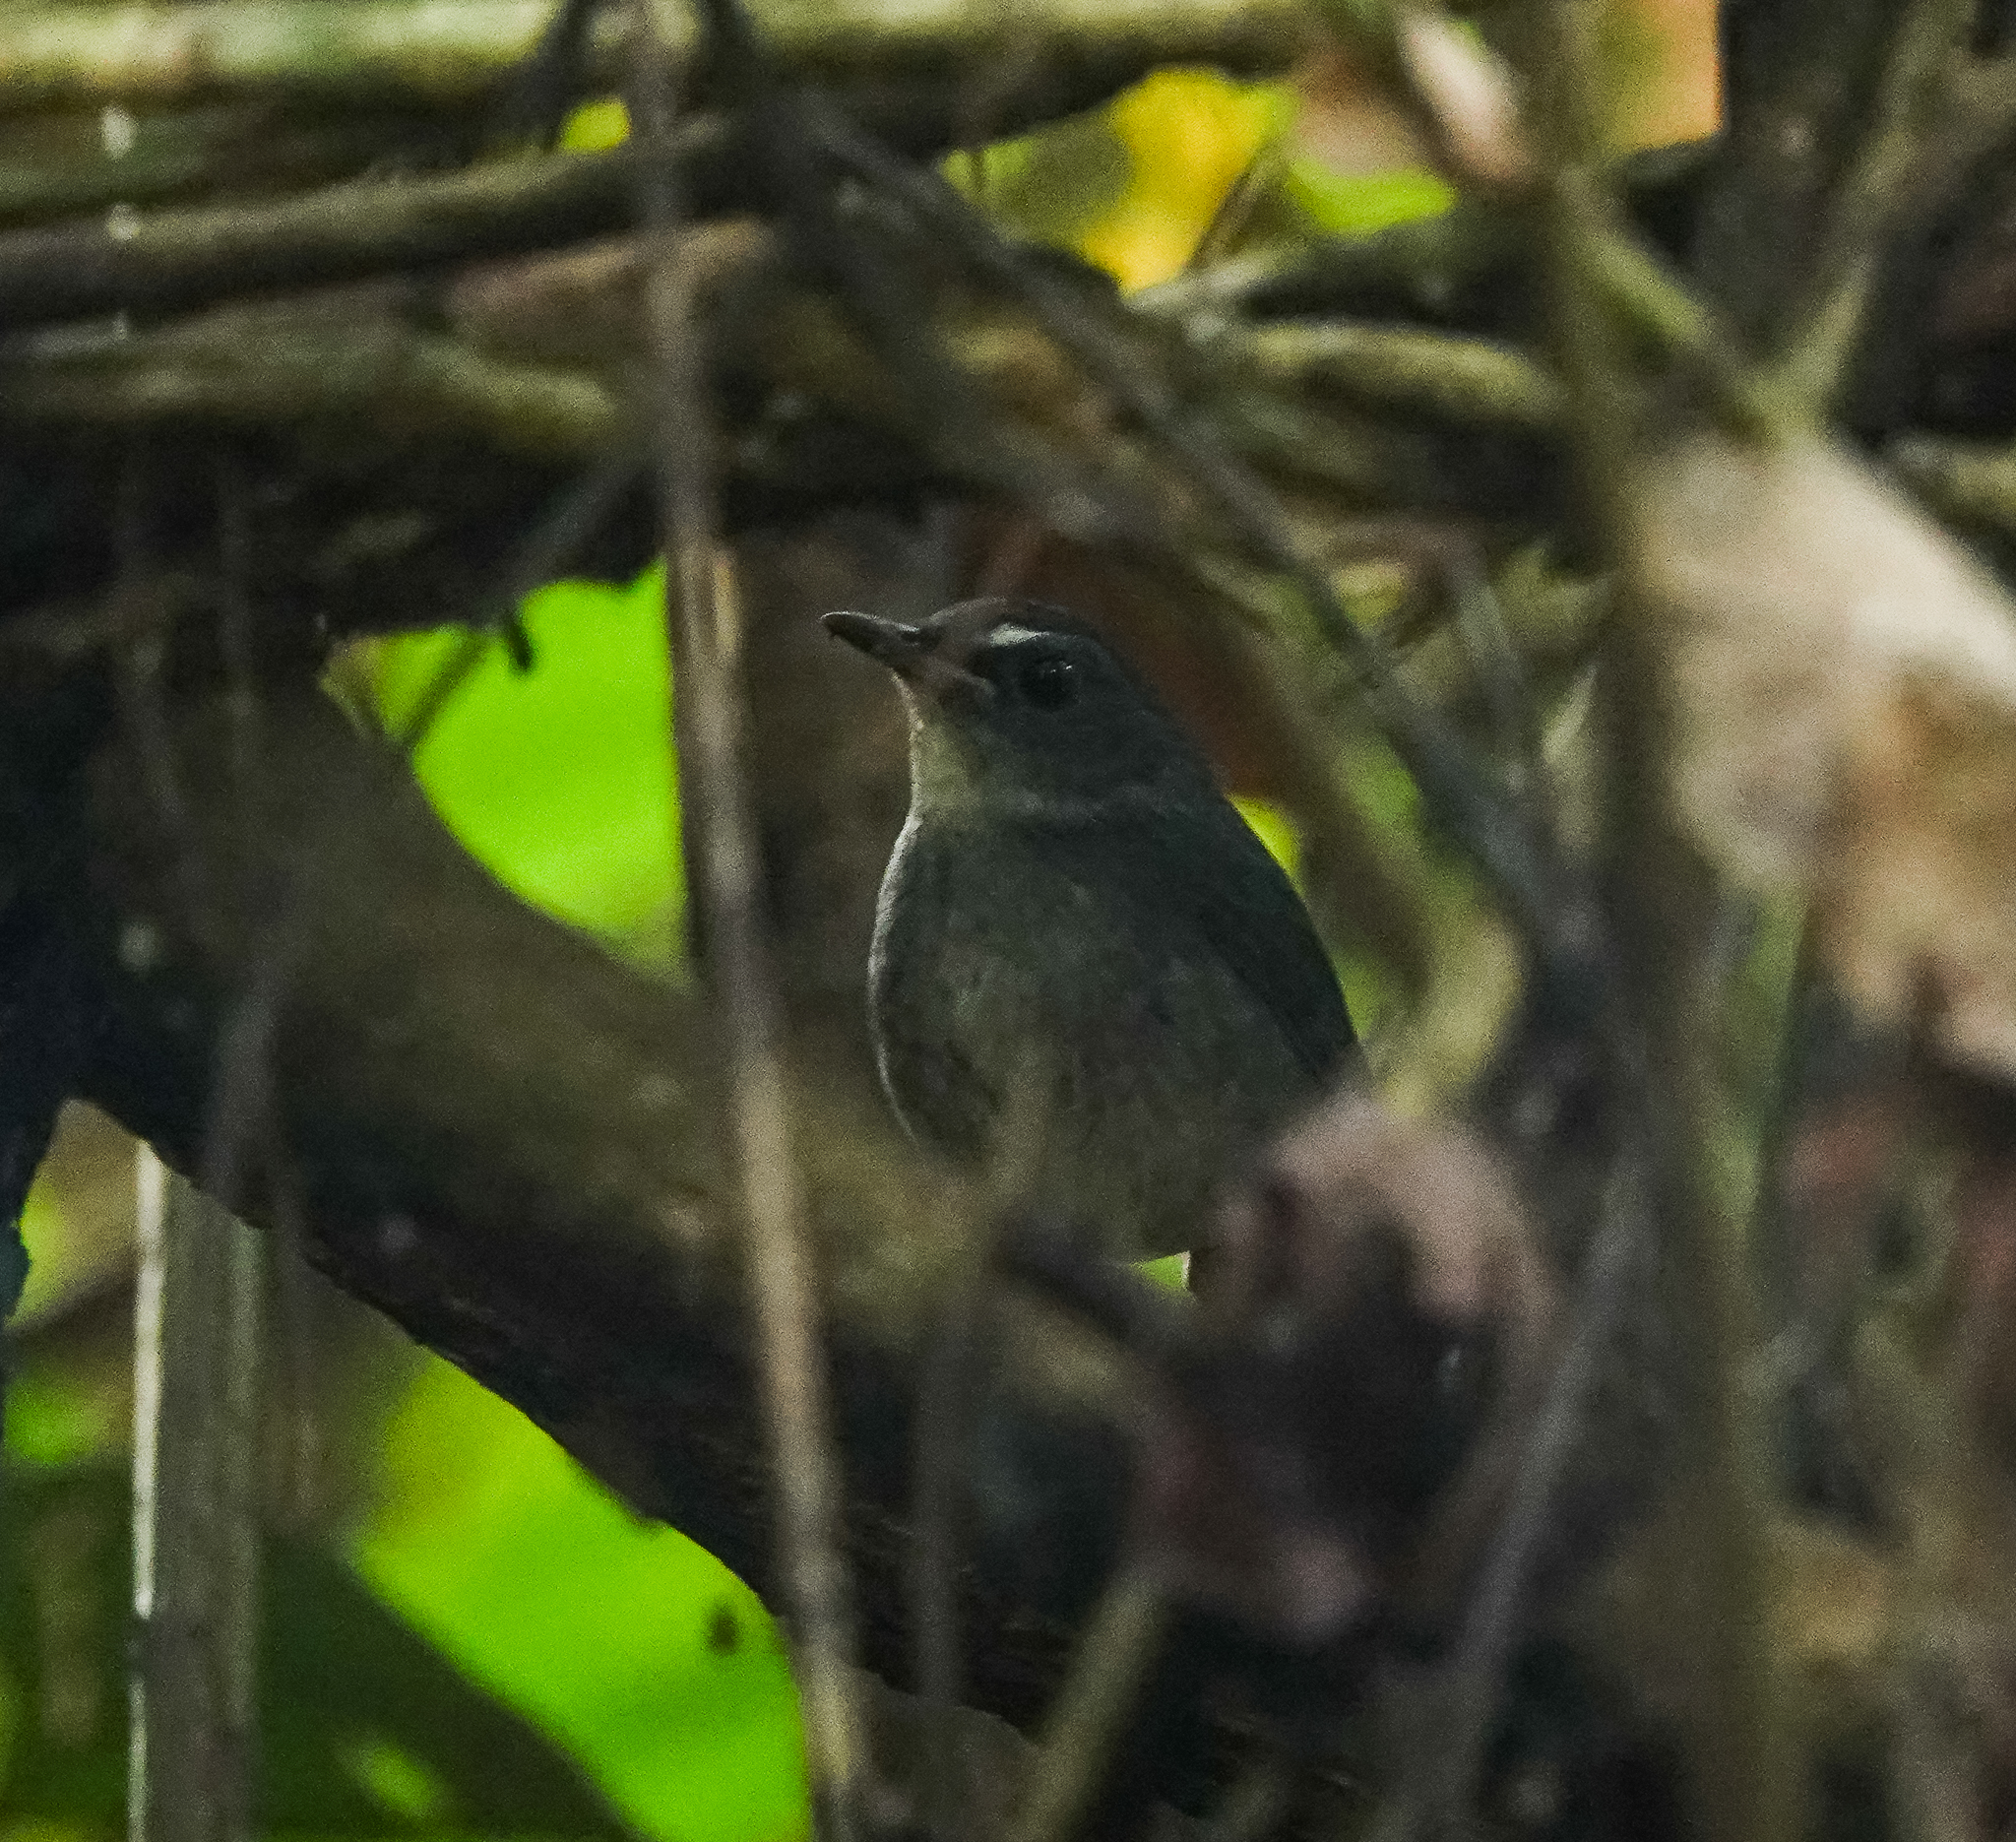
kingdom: Animalia
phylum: Chordata
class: Aves
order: Passeriformes
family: Muscicapidae
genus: Brachypteryx
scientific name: Brachypteryx leucophris
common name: Lesser shortwing
